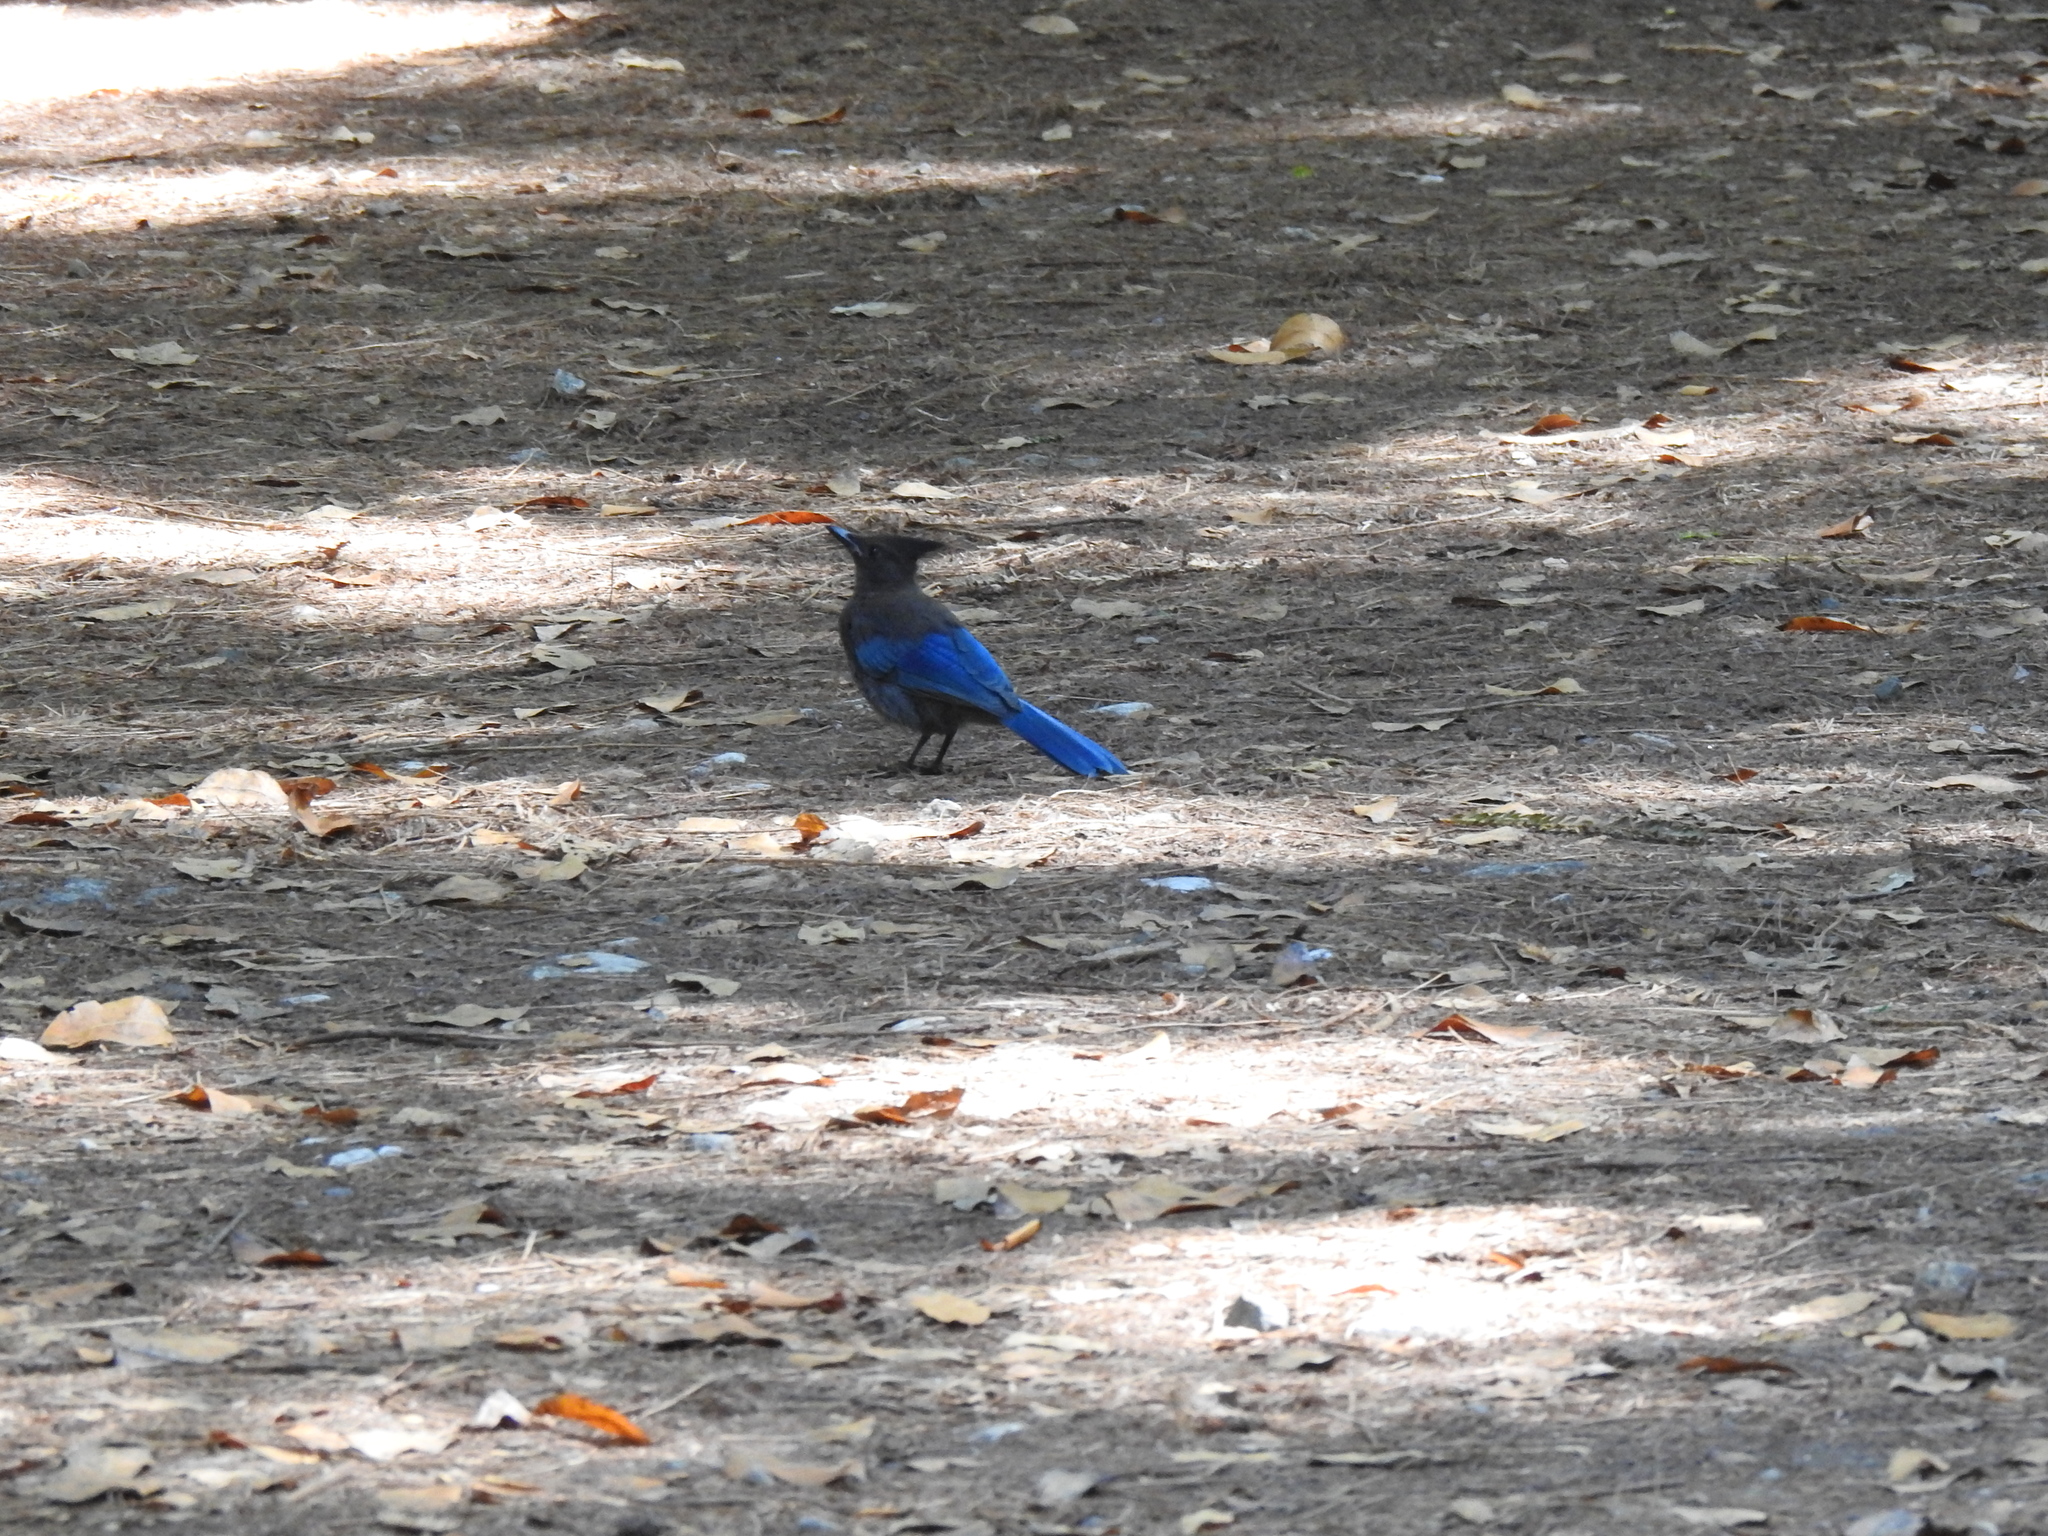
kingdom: Animalia
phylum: Chordata
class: Aves
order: Passeriformes
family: Corvidae
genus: Cyanocitta
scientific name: Cyanocitta stelleri
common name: Steller's jay
